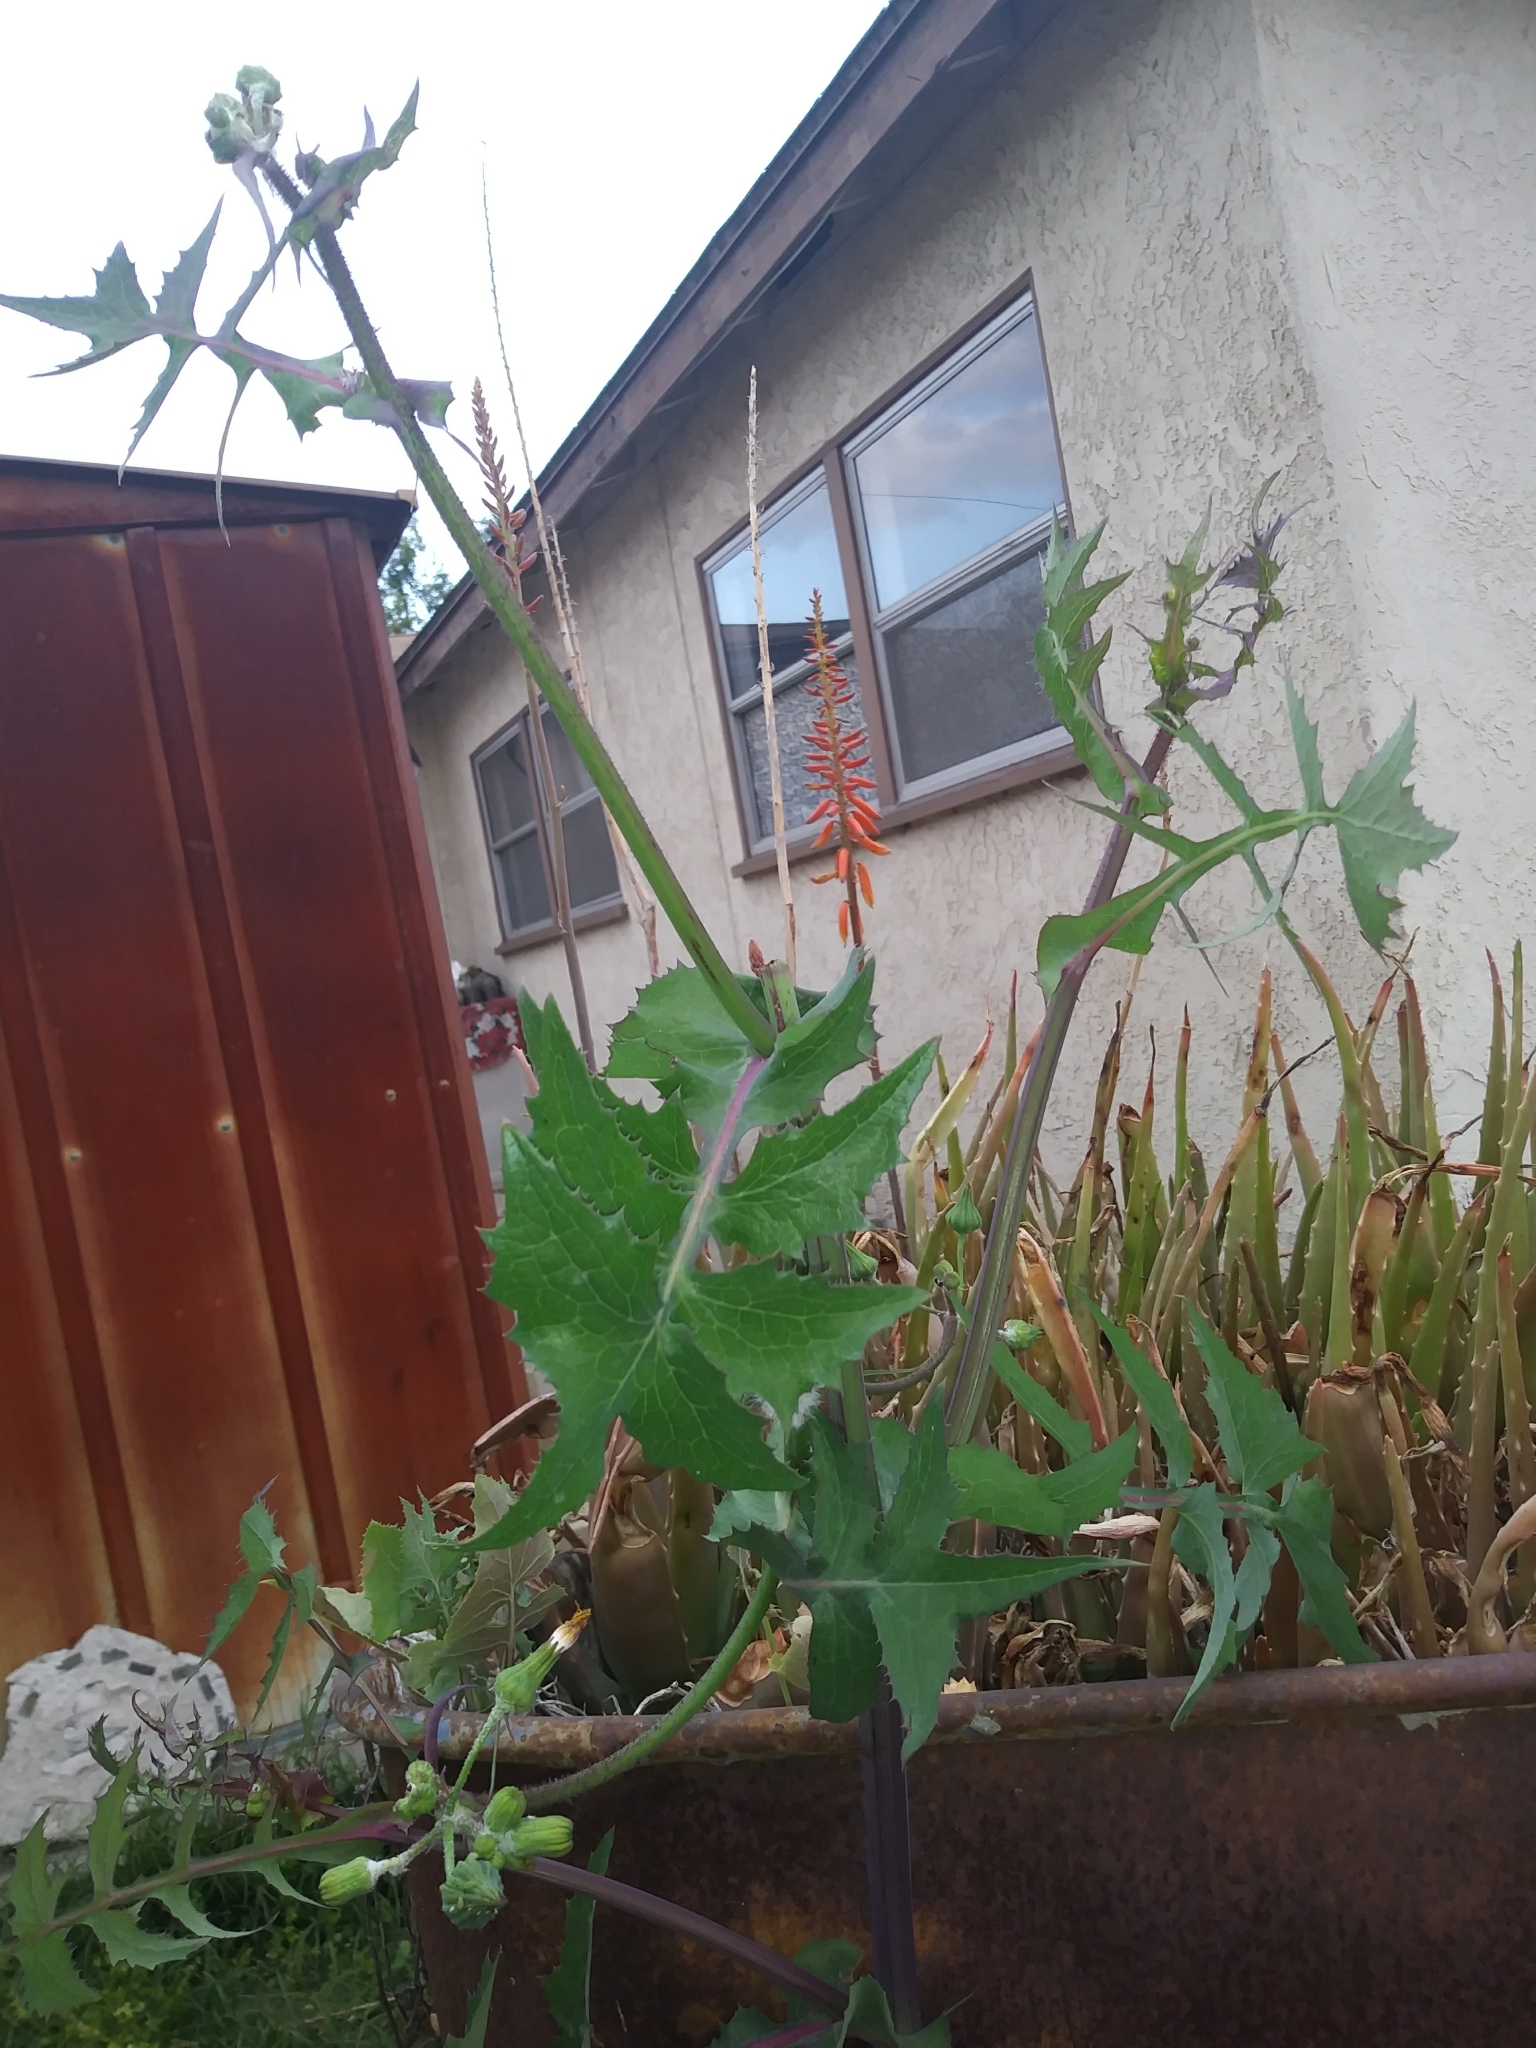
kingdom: Plantae
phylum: Tracheophyta
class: Magnoliopsida
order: Asterales
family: Asteraceae
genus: Sonchus
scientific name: Sonchus asper
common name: Prickly sow-thistle
